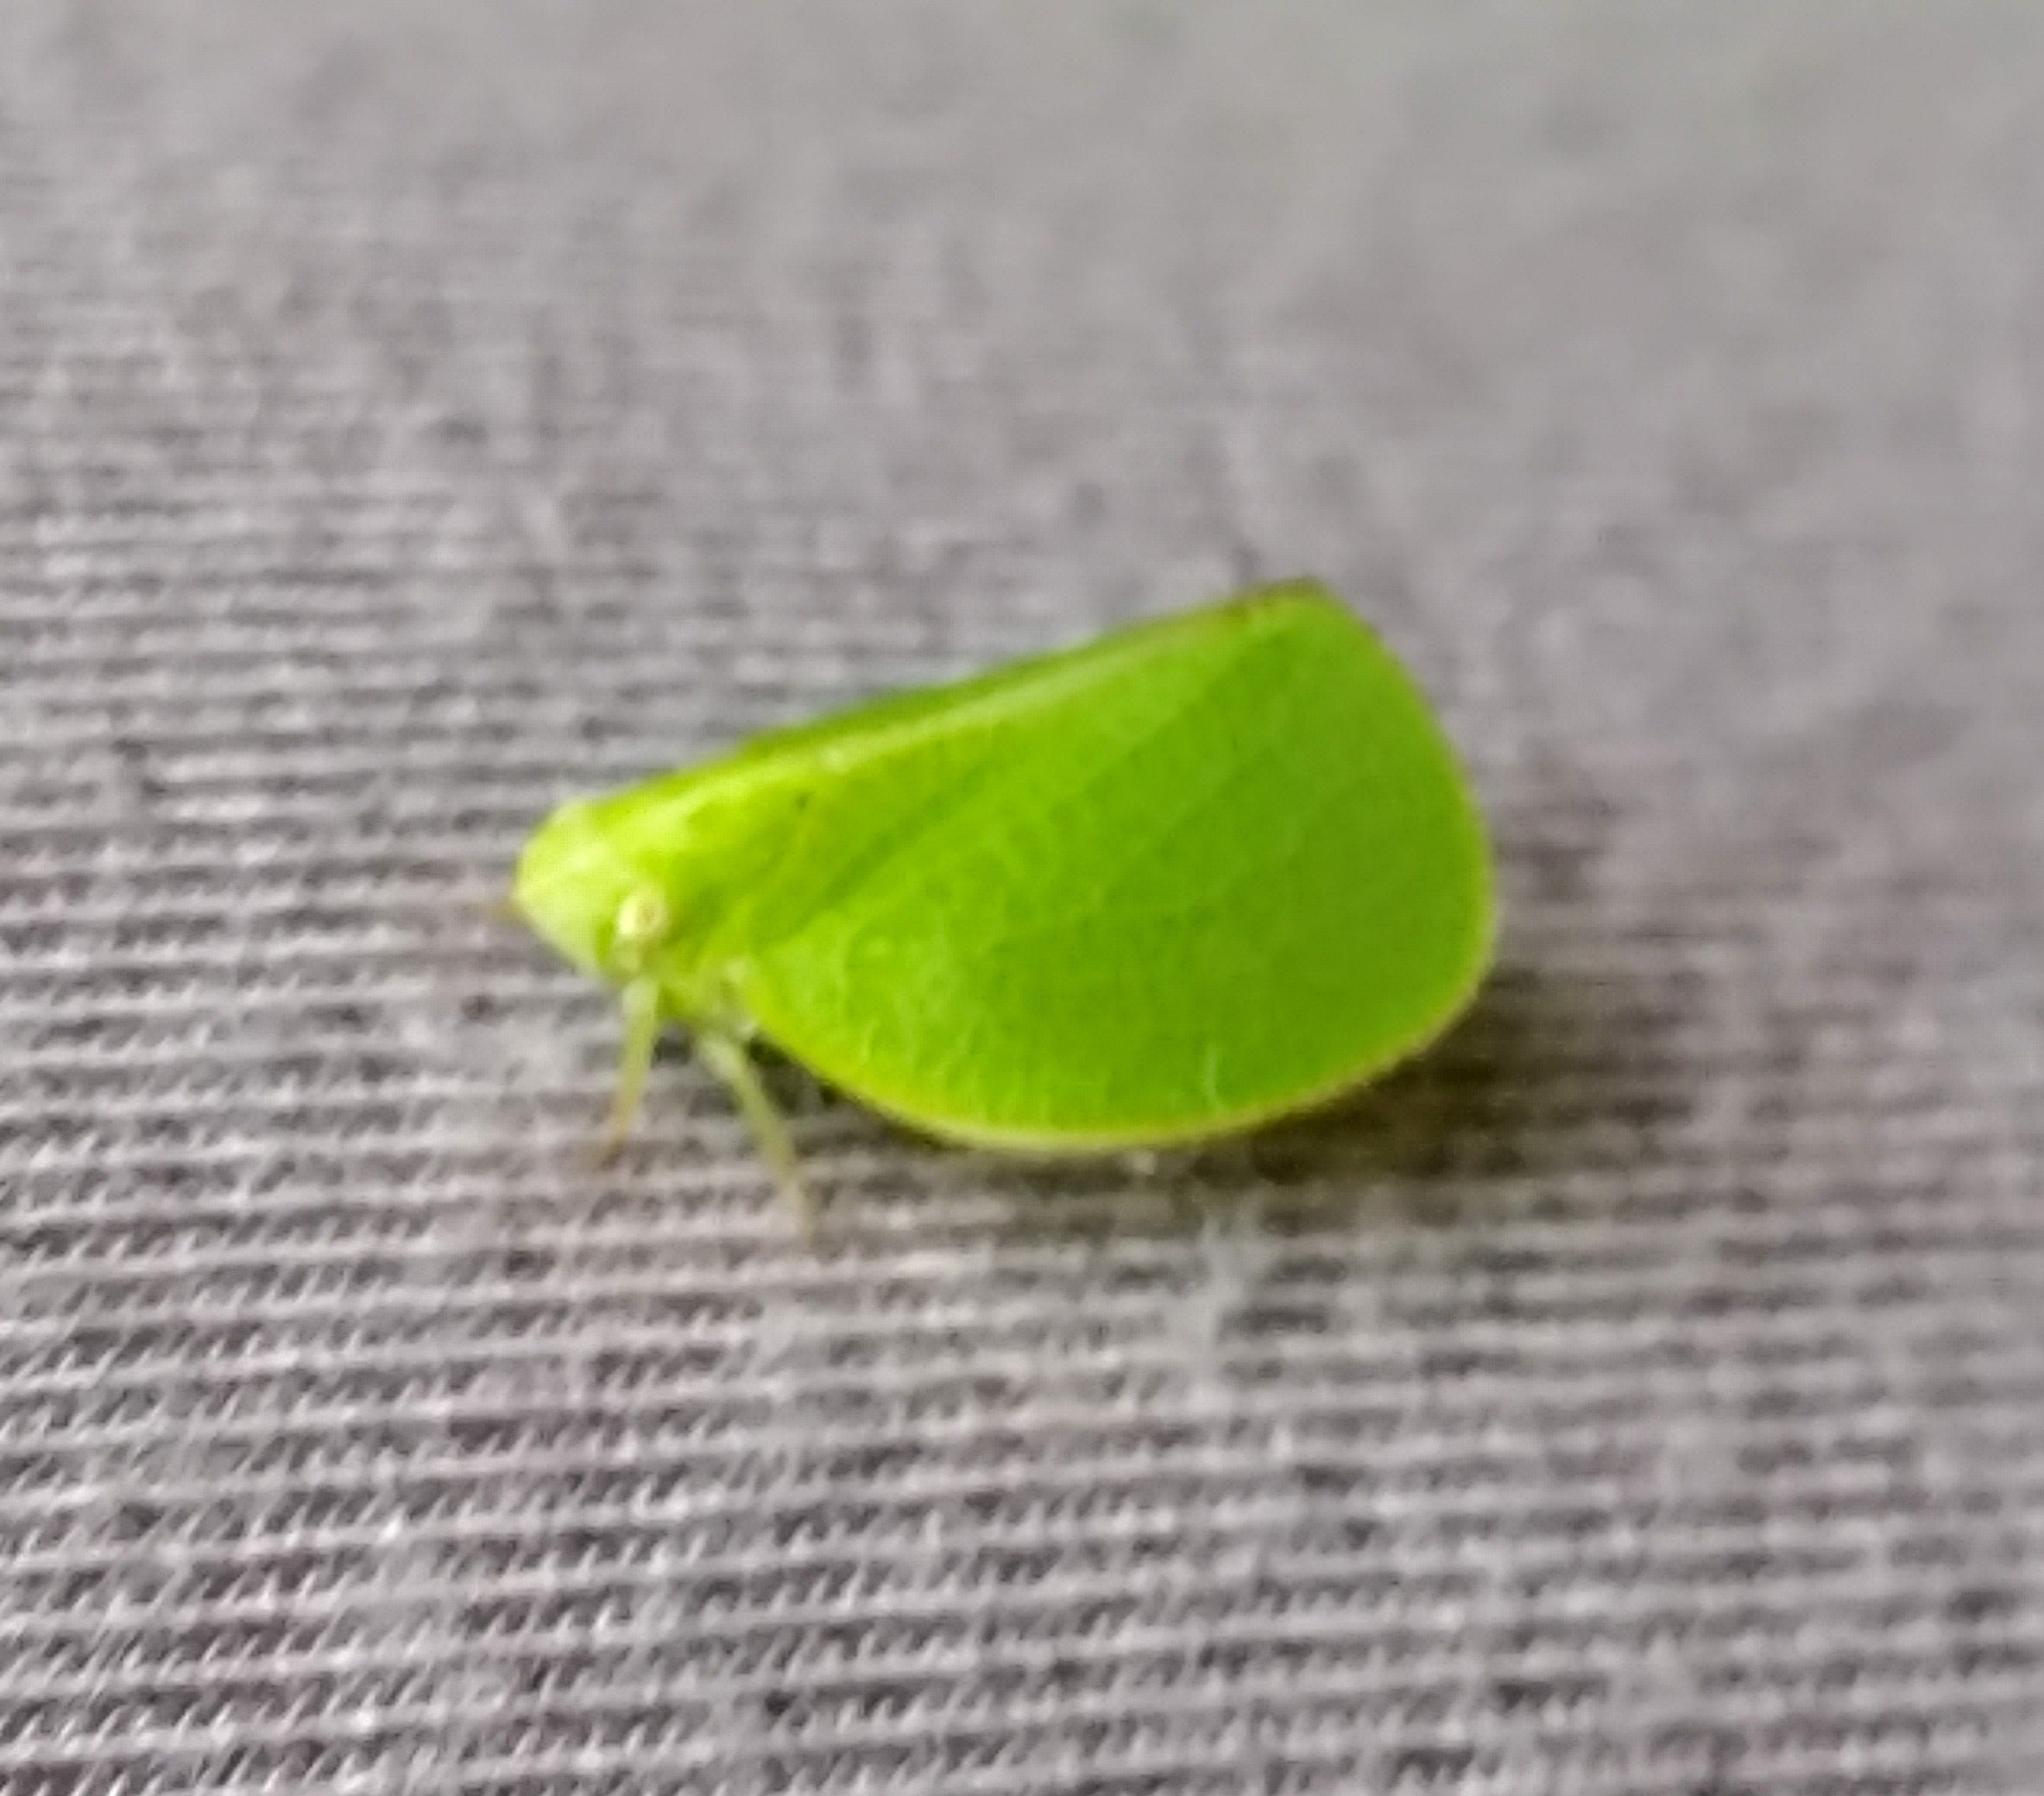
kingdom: Animalia
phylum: Arthropoda
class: Insecta
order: Hemiptera
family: Acanaloniidae
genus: Acanalonia
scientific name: Acanalonia conica
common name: Green cone-headed planthopper
